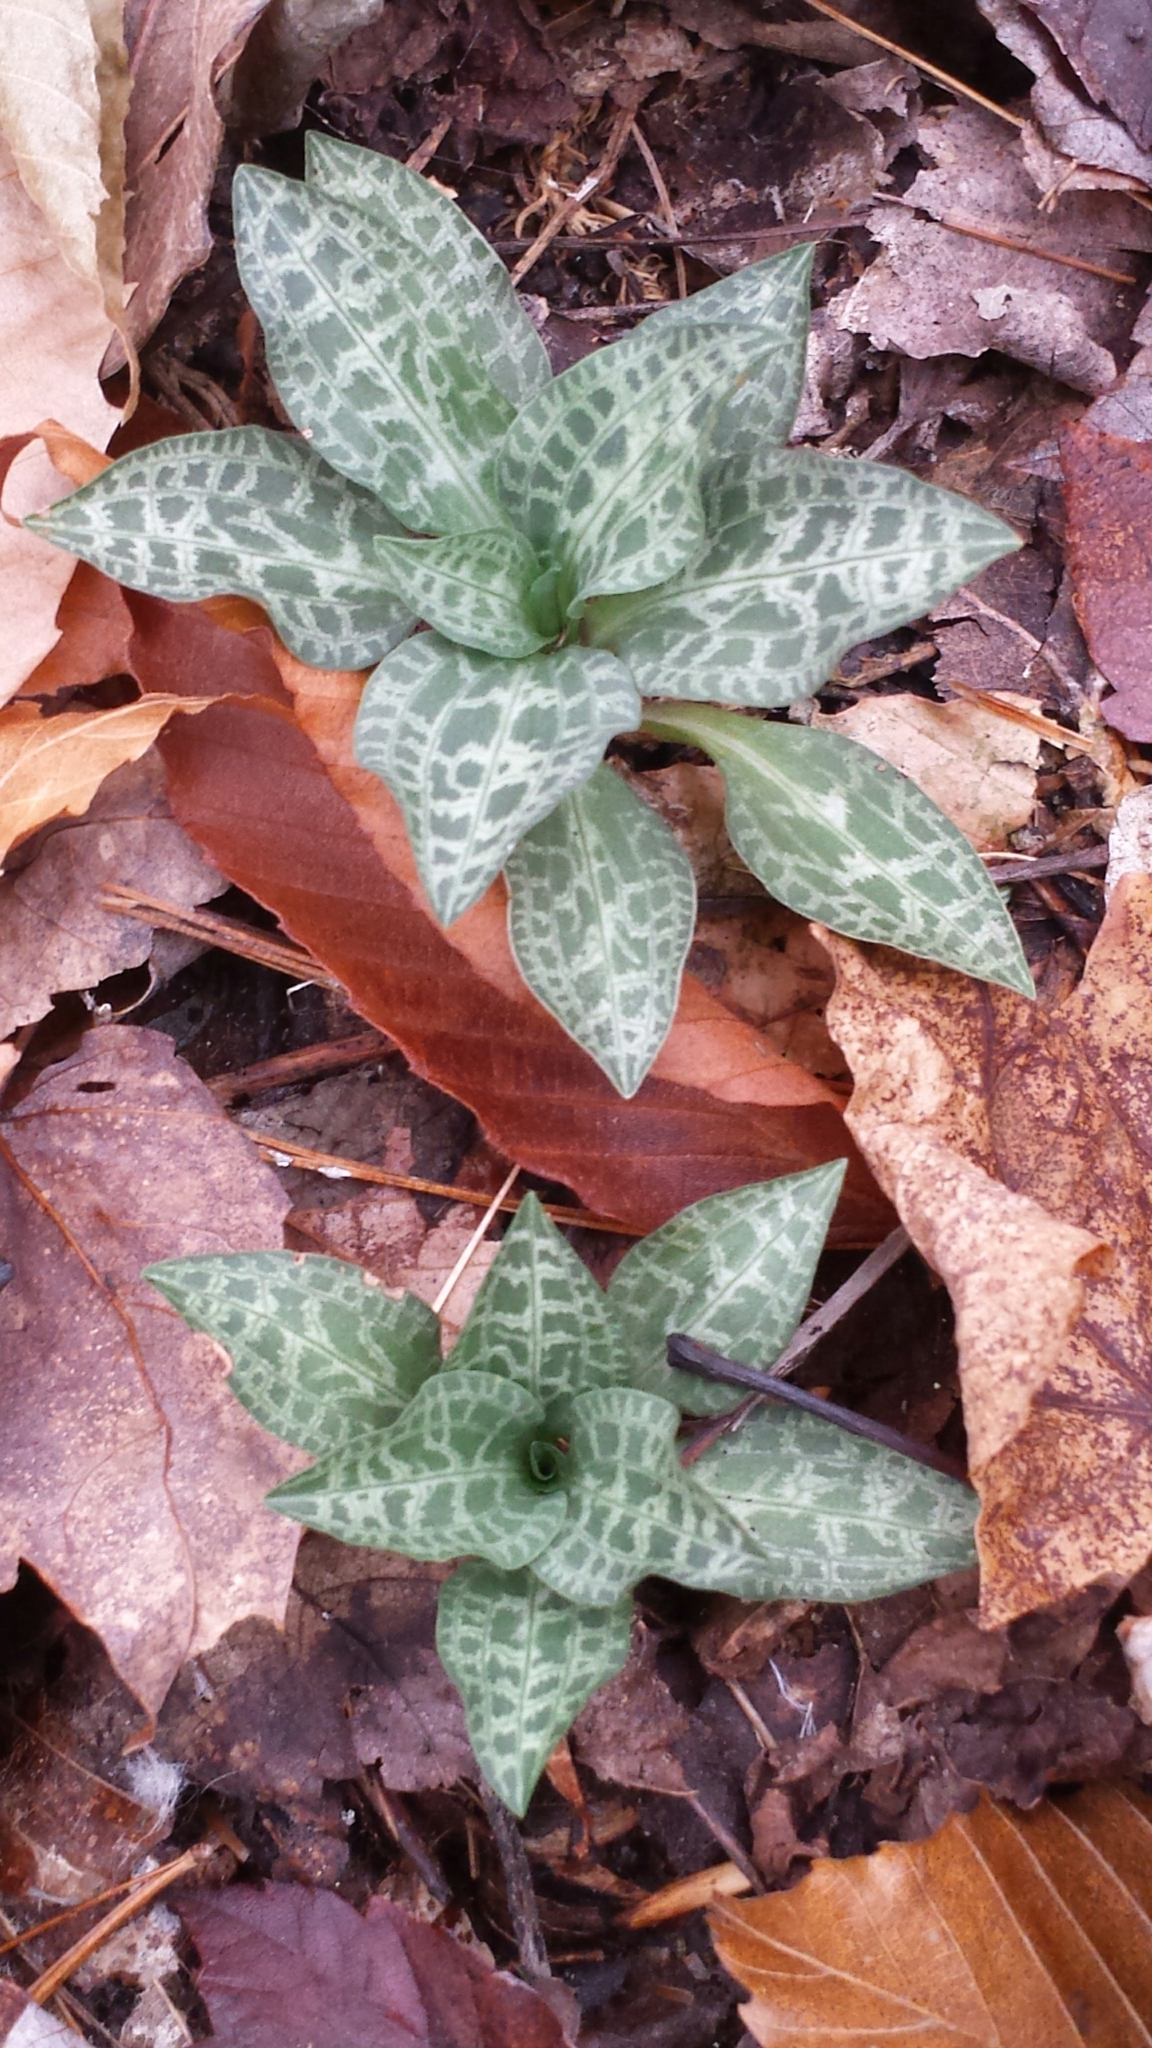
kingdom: Plantae
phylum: Tracheophyta
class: Liliopsida
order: Asparagales
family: Orchidaceae
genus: Goodyera
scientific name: Goodyera tesselata
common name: Checkered rattlesnake-plantain
